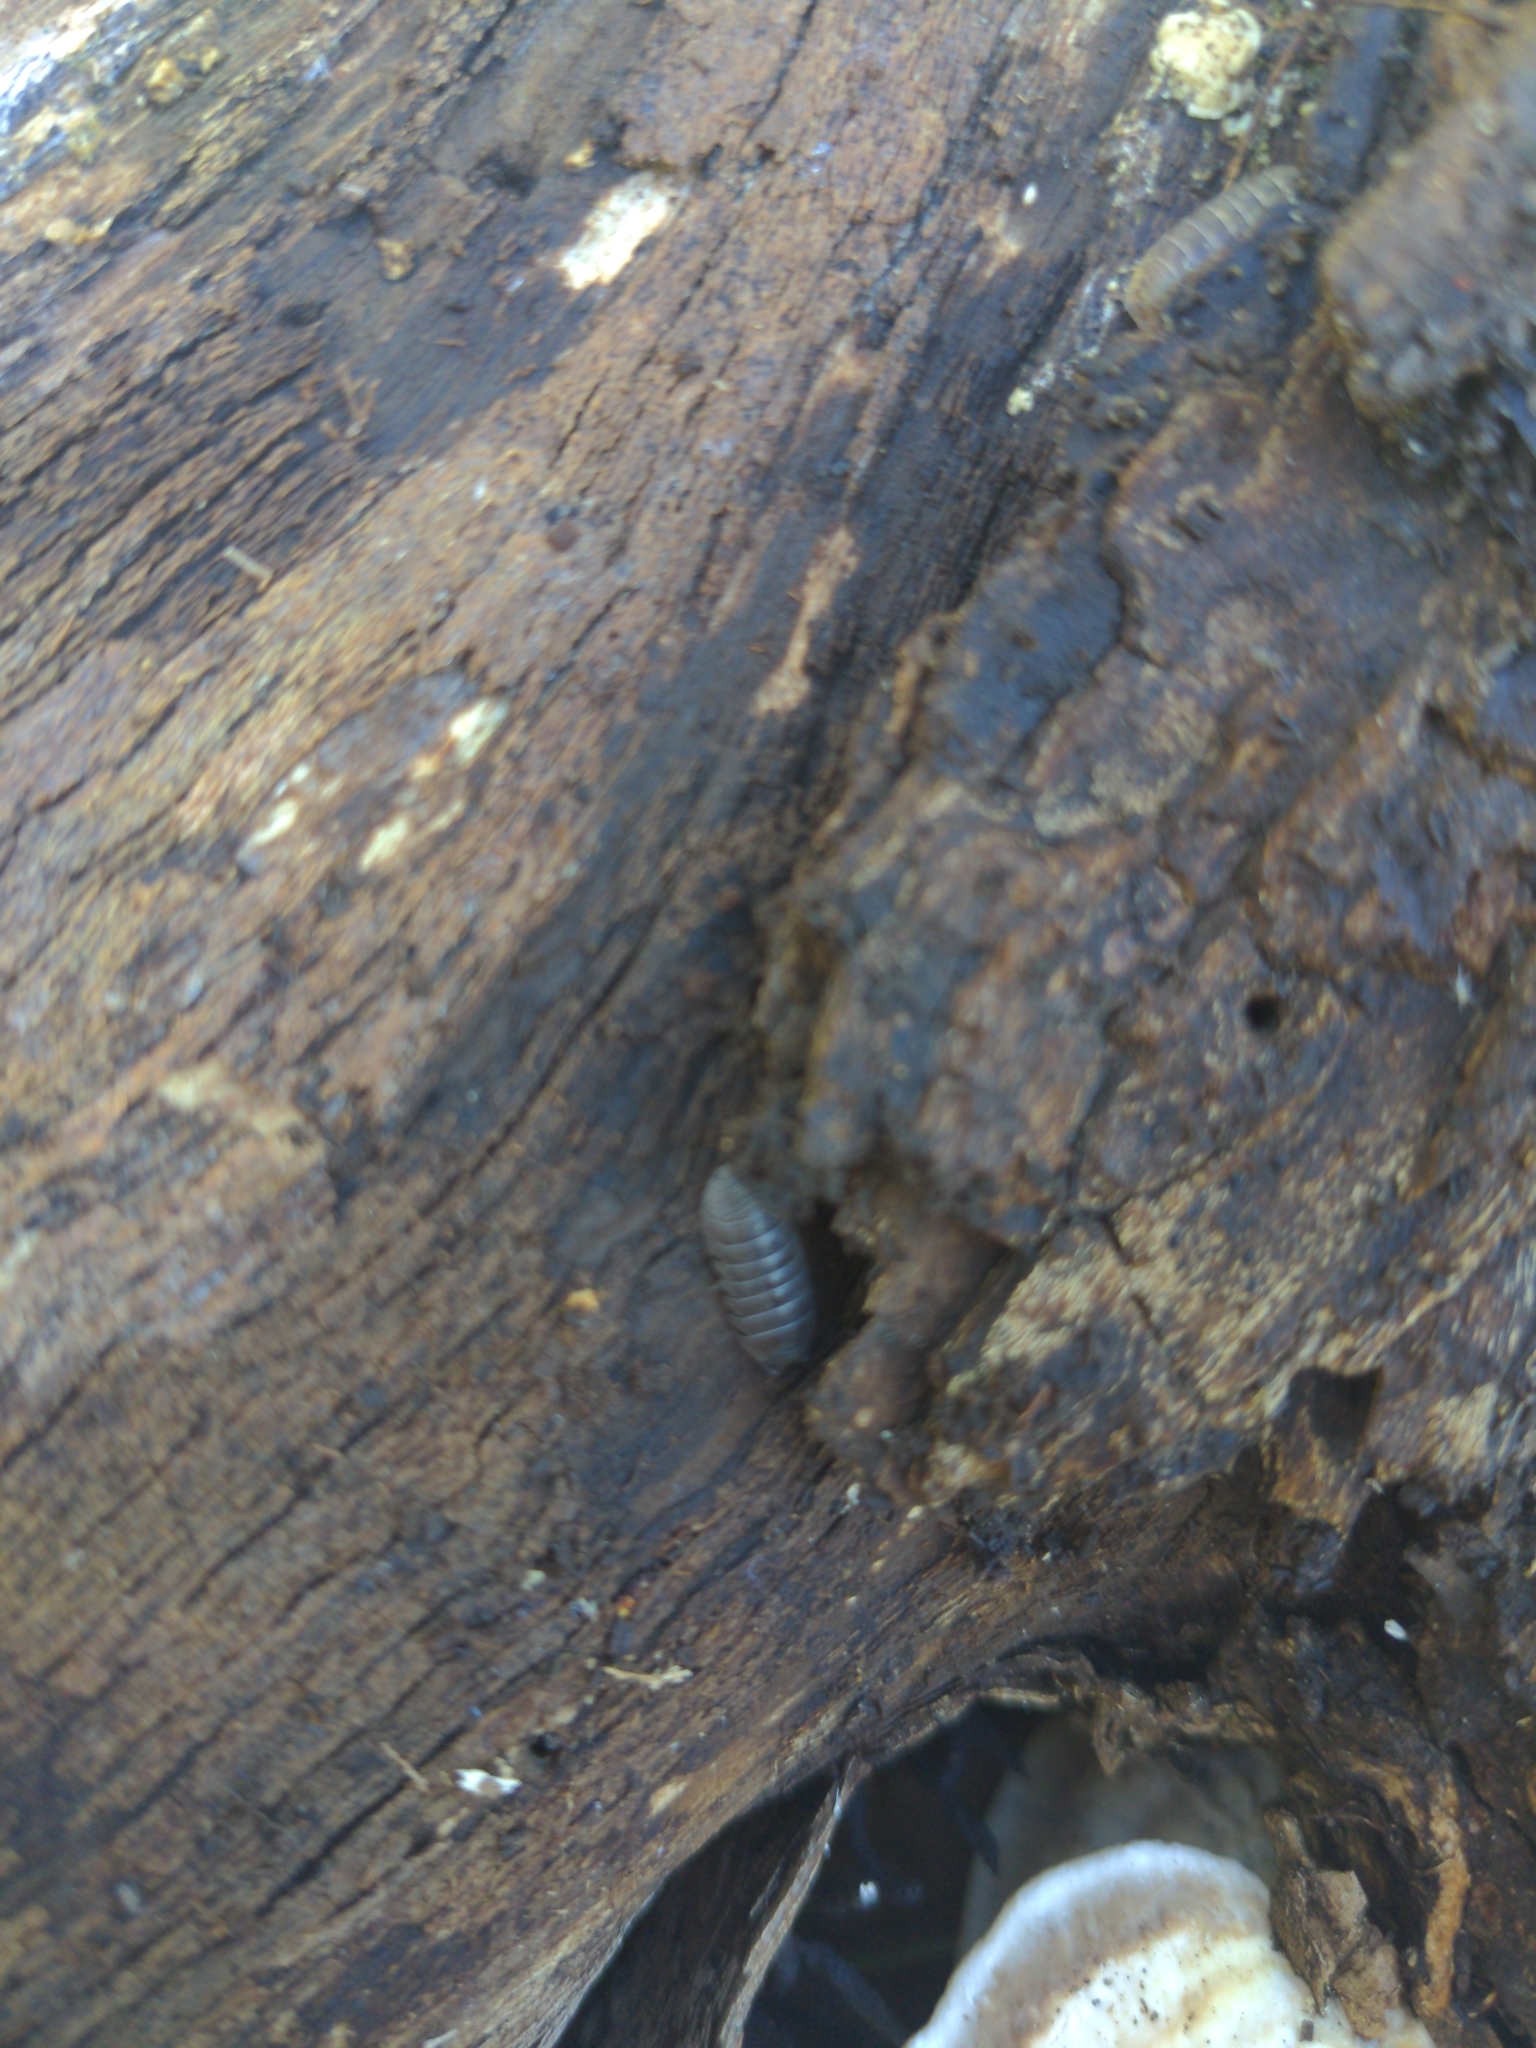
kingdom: Animalia
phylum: Arthropoda
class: Malacostraca
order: Isopoda
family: Armadillidiidae
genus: Armadillidium
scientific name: Armadillidium vulgare
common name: Common pill woodlouse
